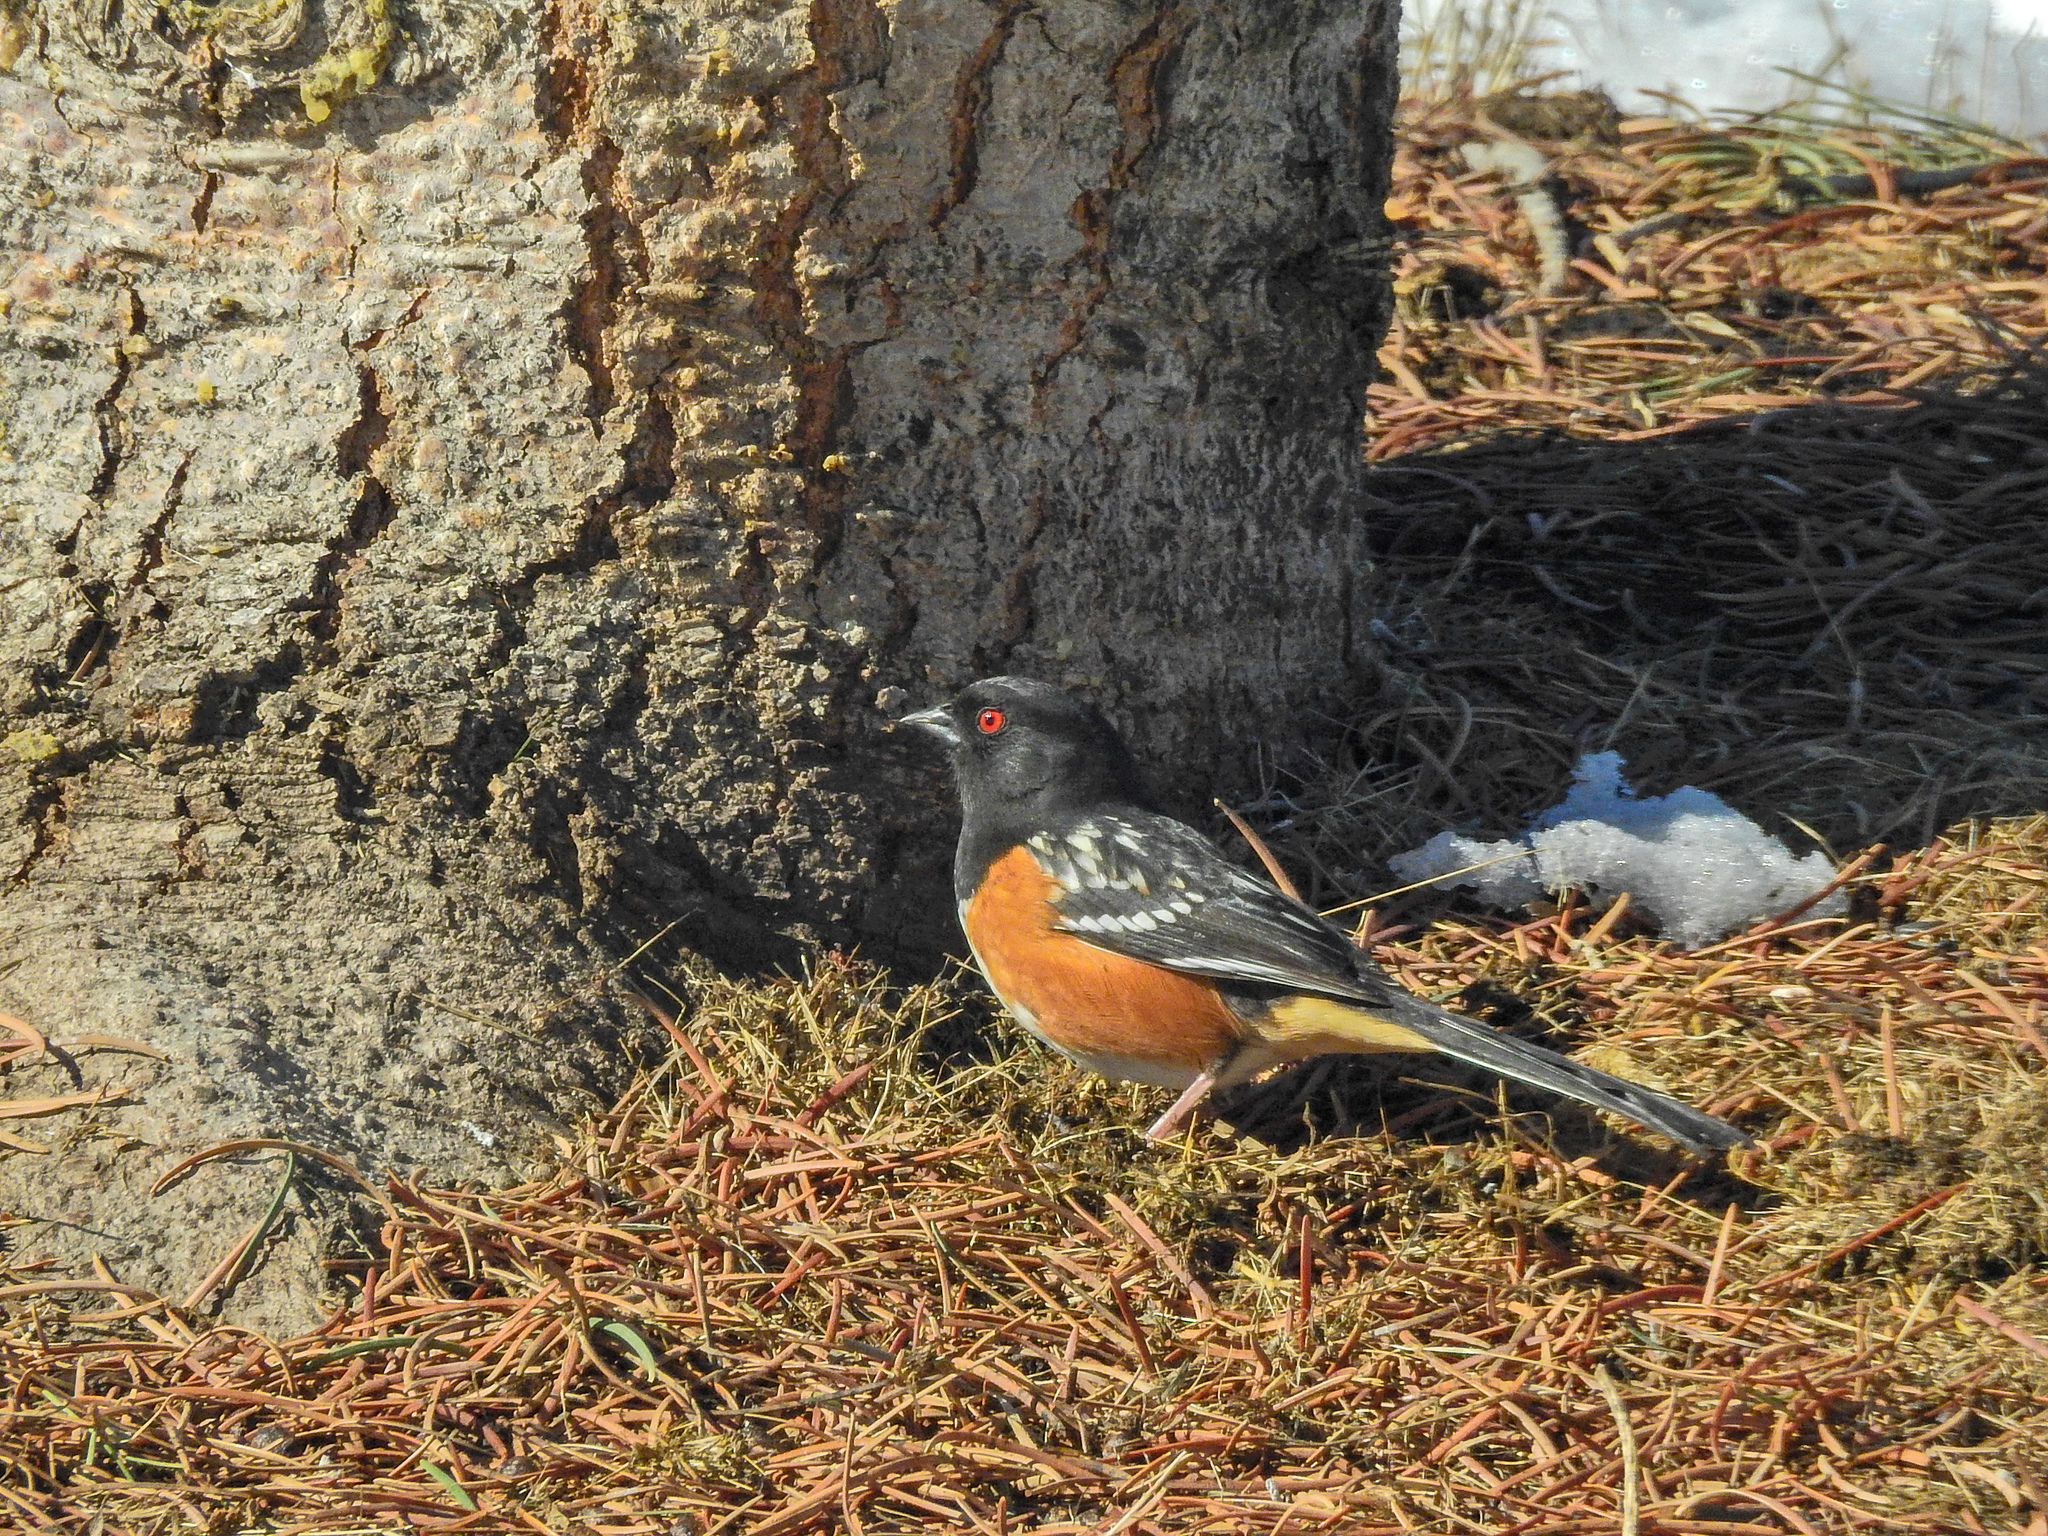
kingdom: Animalia
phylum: Chordata
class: Aves
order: Passeriformes
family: Passerellidae
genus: Pipilo
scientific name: Pipilo maculatus
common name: Spotted towhee
